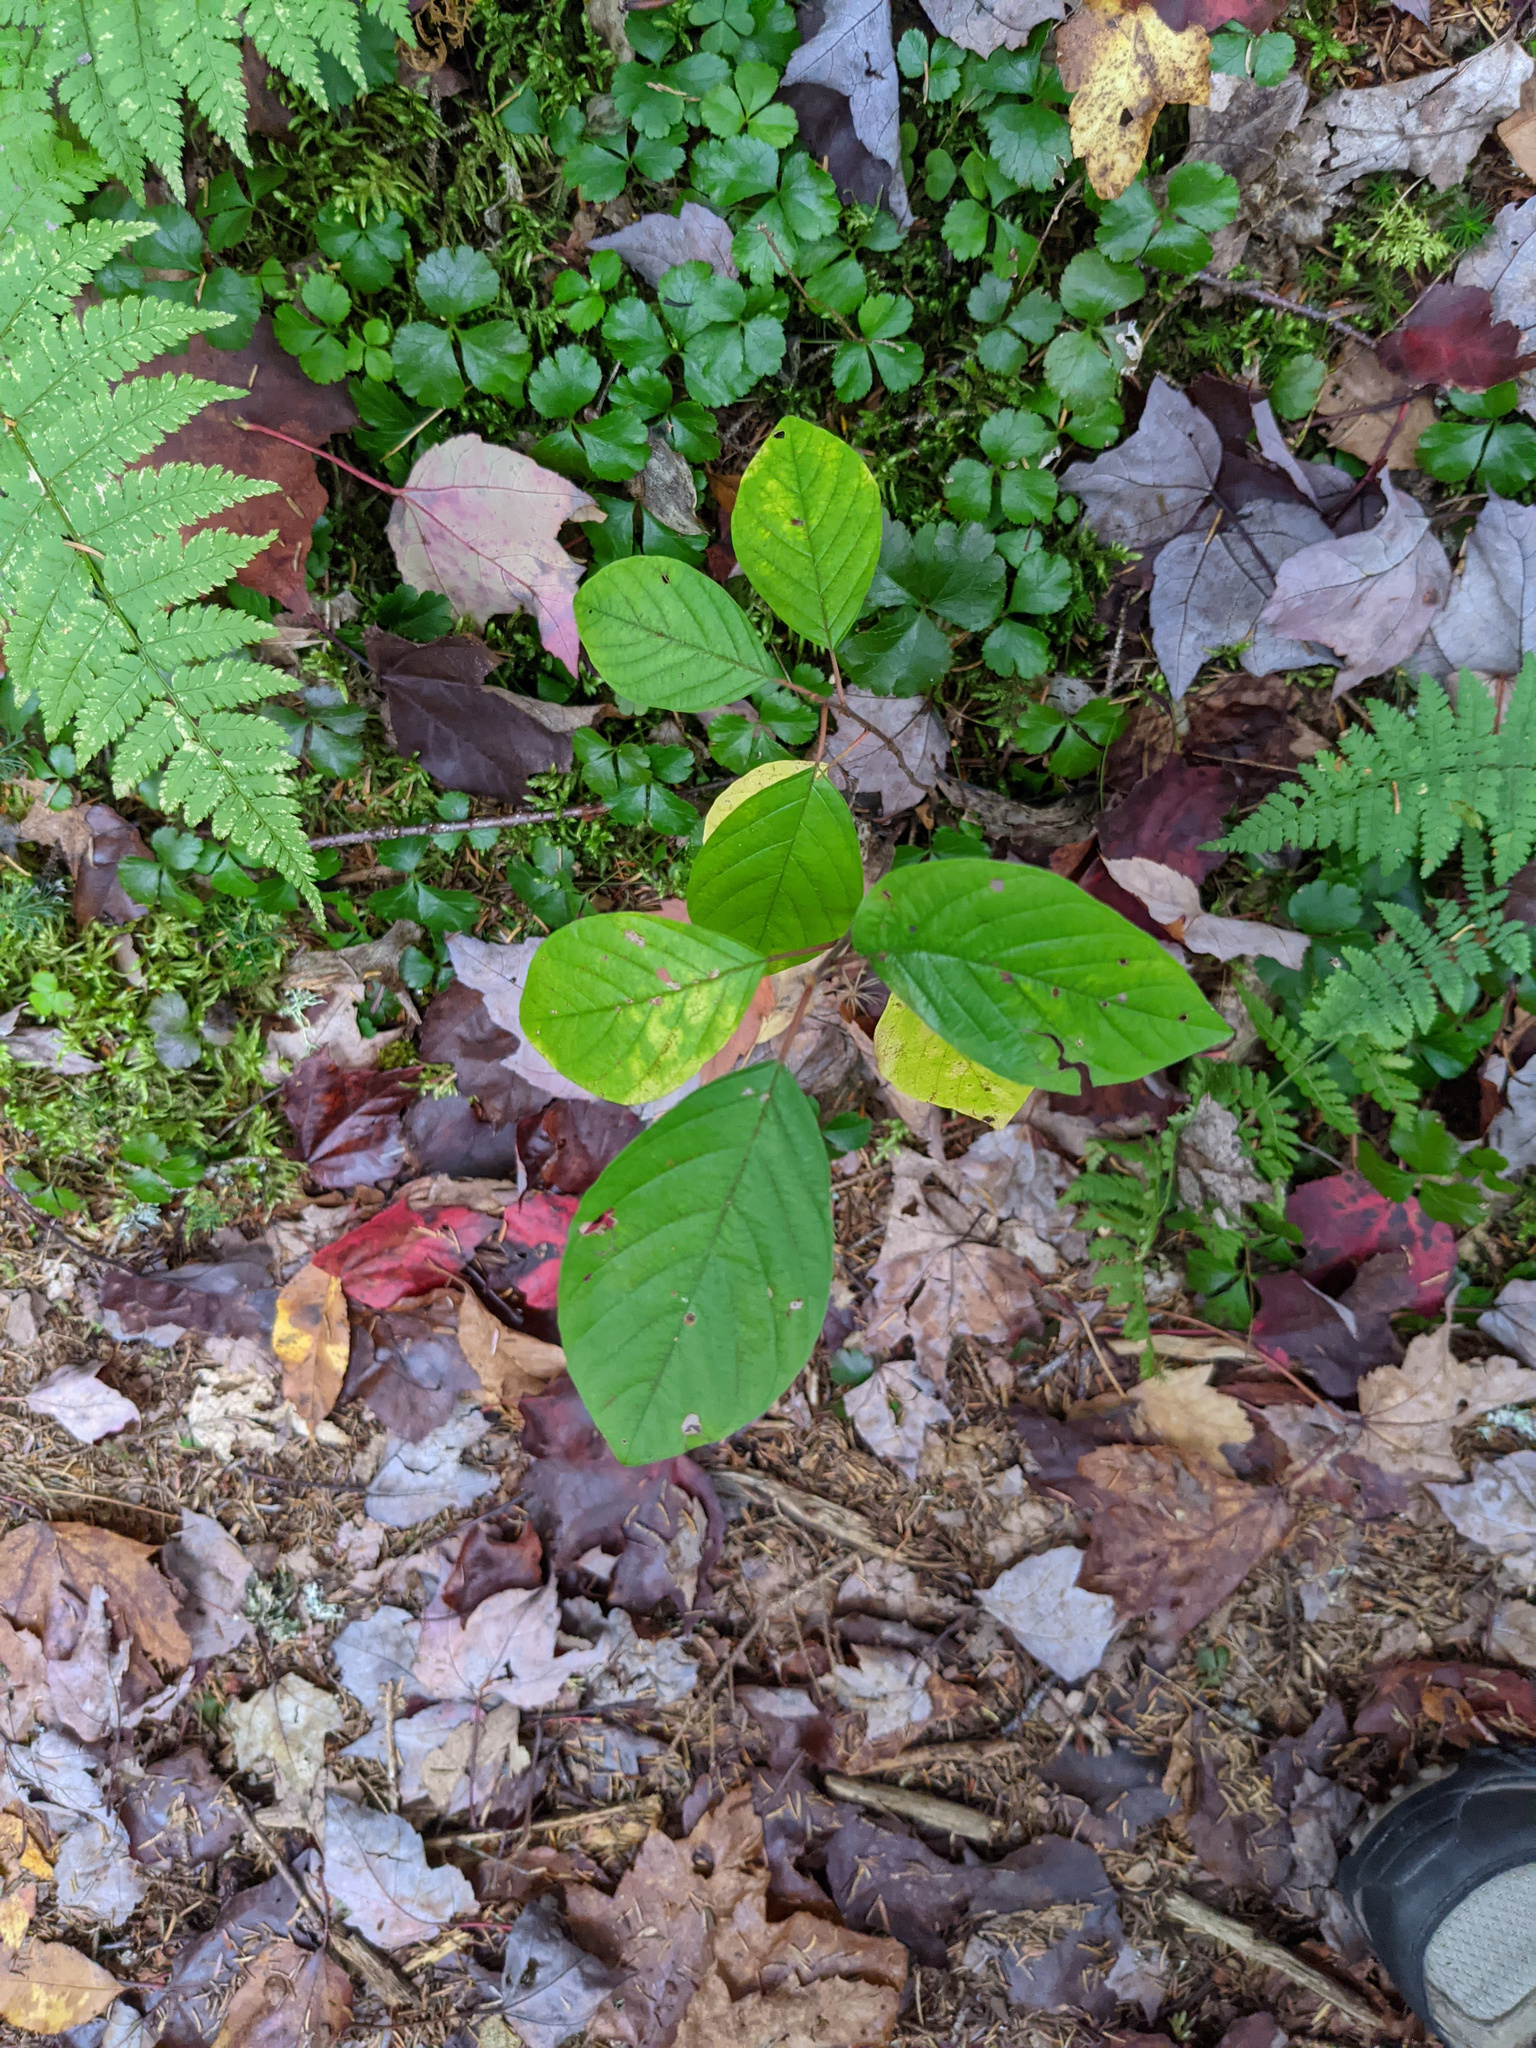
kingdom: Plantae
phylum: Tracheophyta
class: Magnoliopsida
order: Rosales
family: Rhamnaceae
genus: Frangula
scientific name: Frangula alnus
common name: Alder buckthorn
